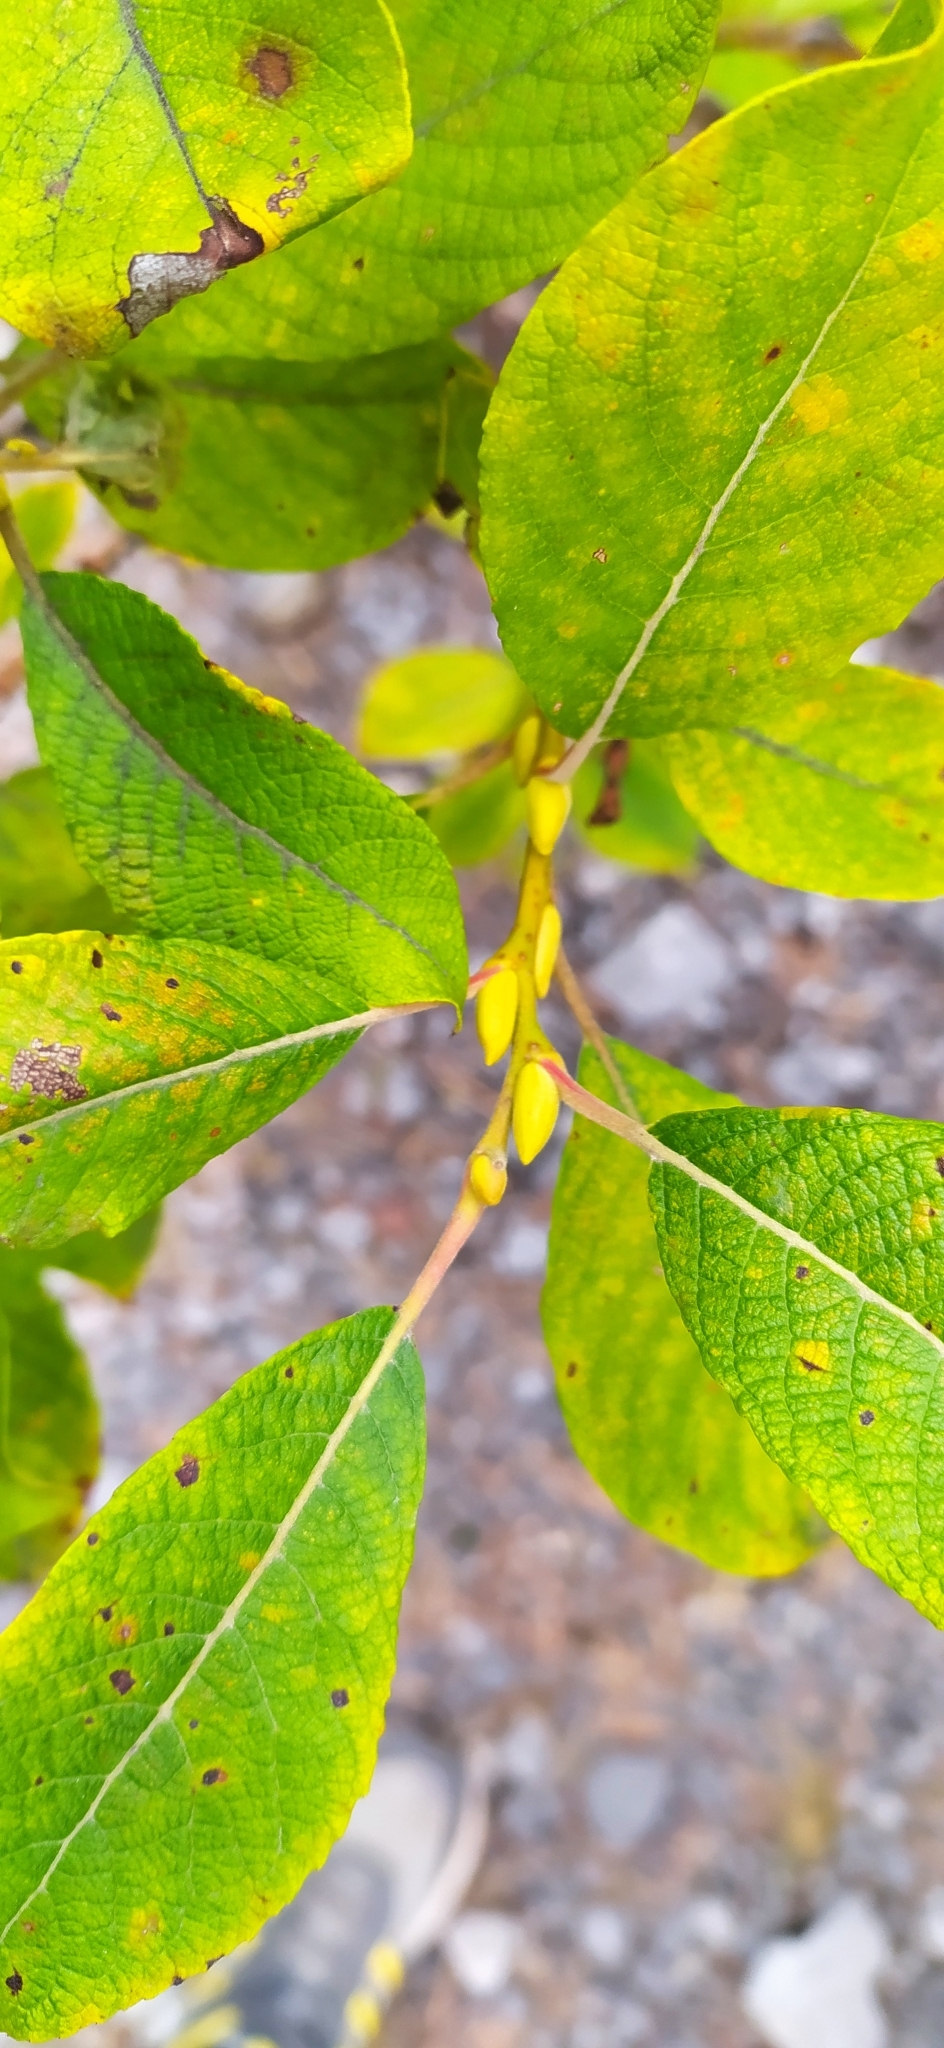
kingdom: Plantae
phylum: Tracheophyta
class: Magnoliopsida
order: Malpighiales
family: Salicaceae
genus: Salix
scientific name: Salix caprea
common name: Goat willow
